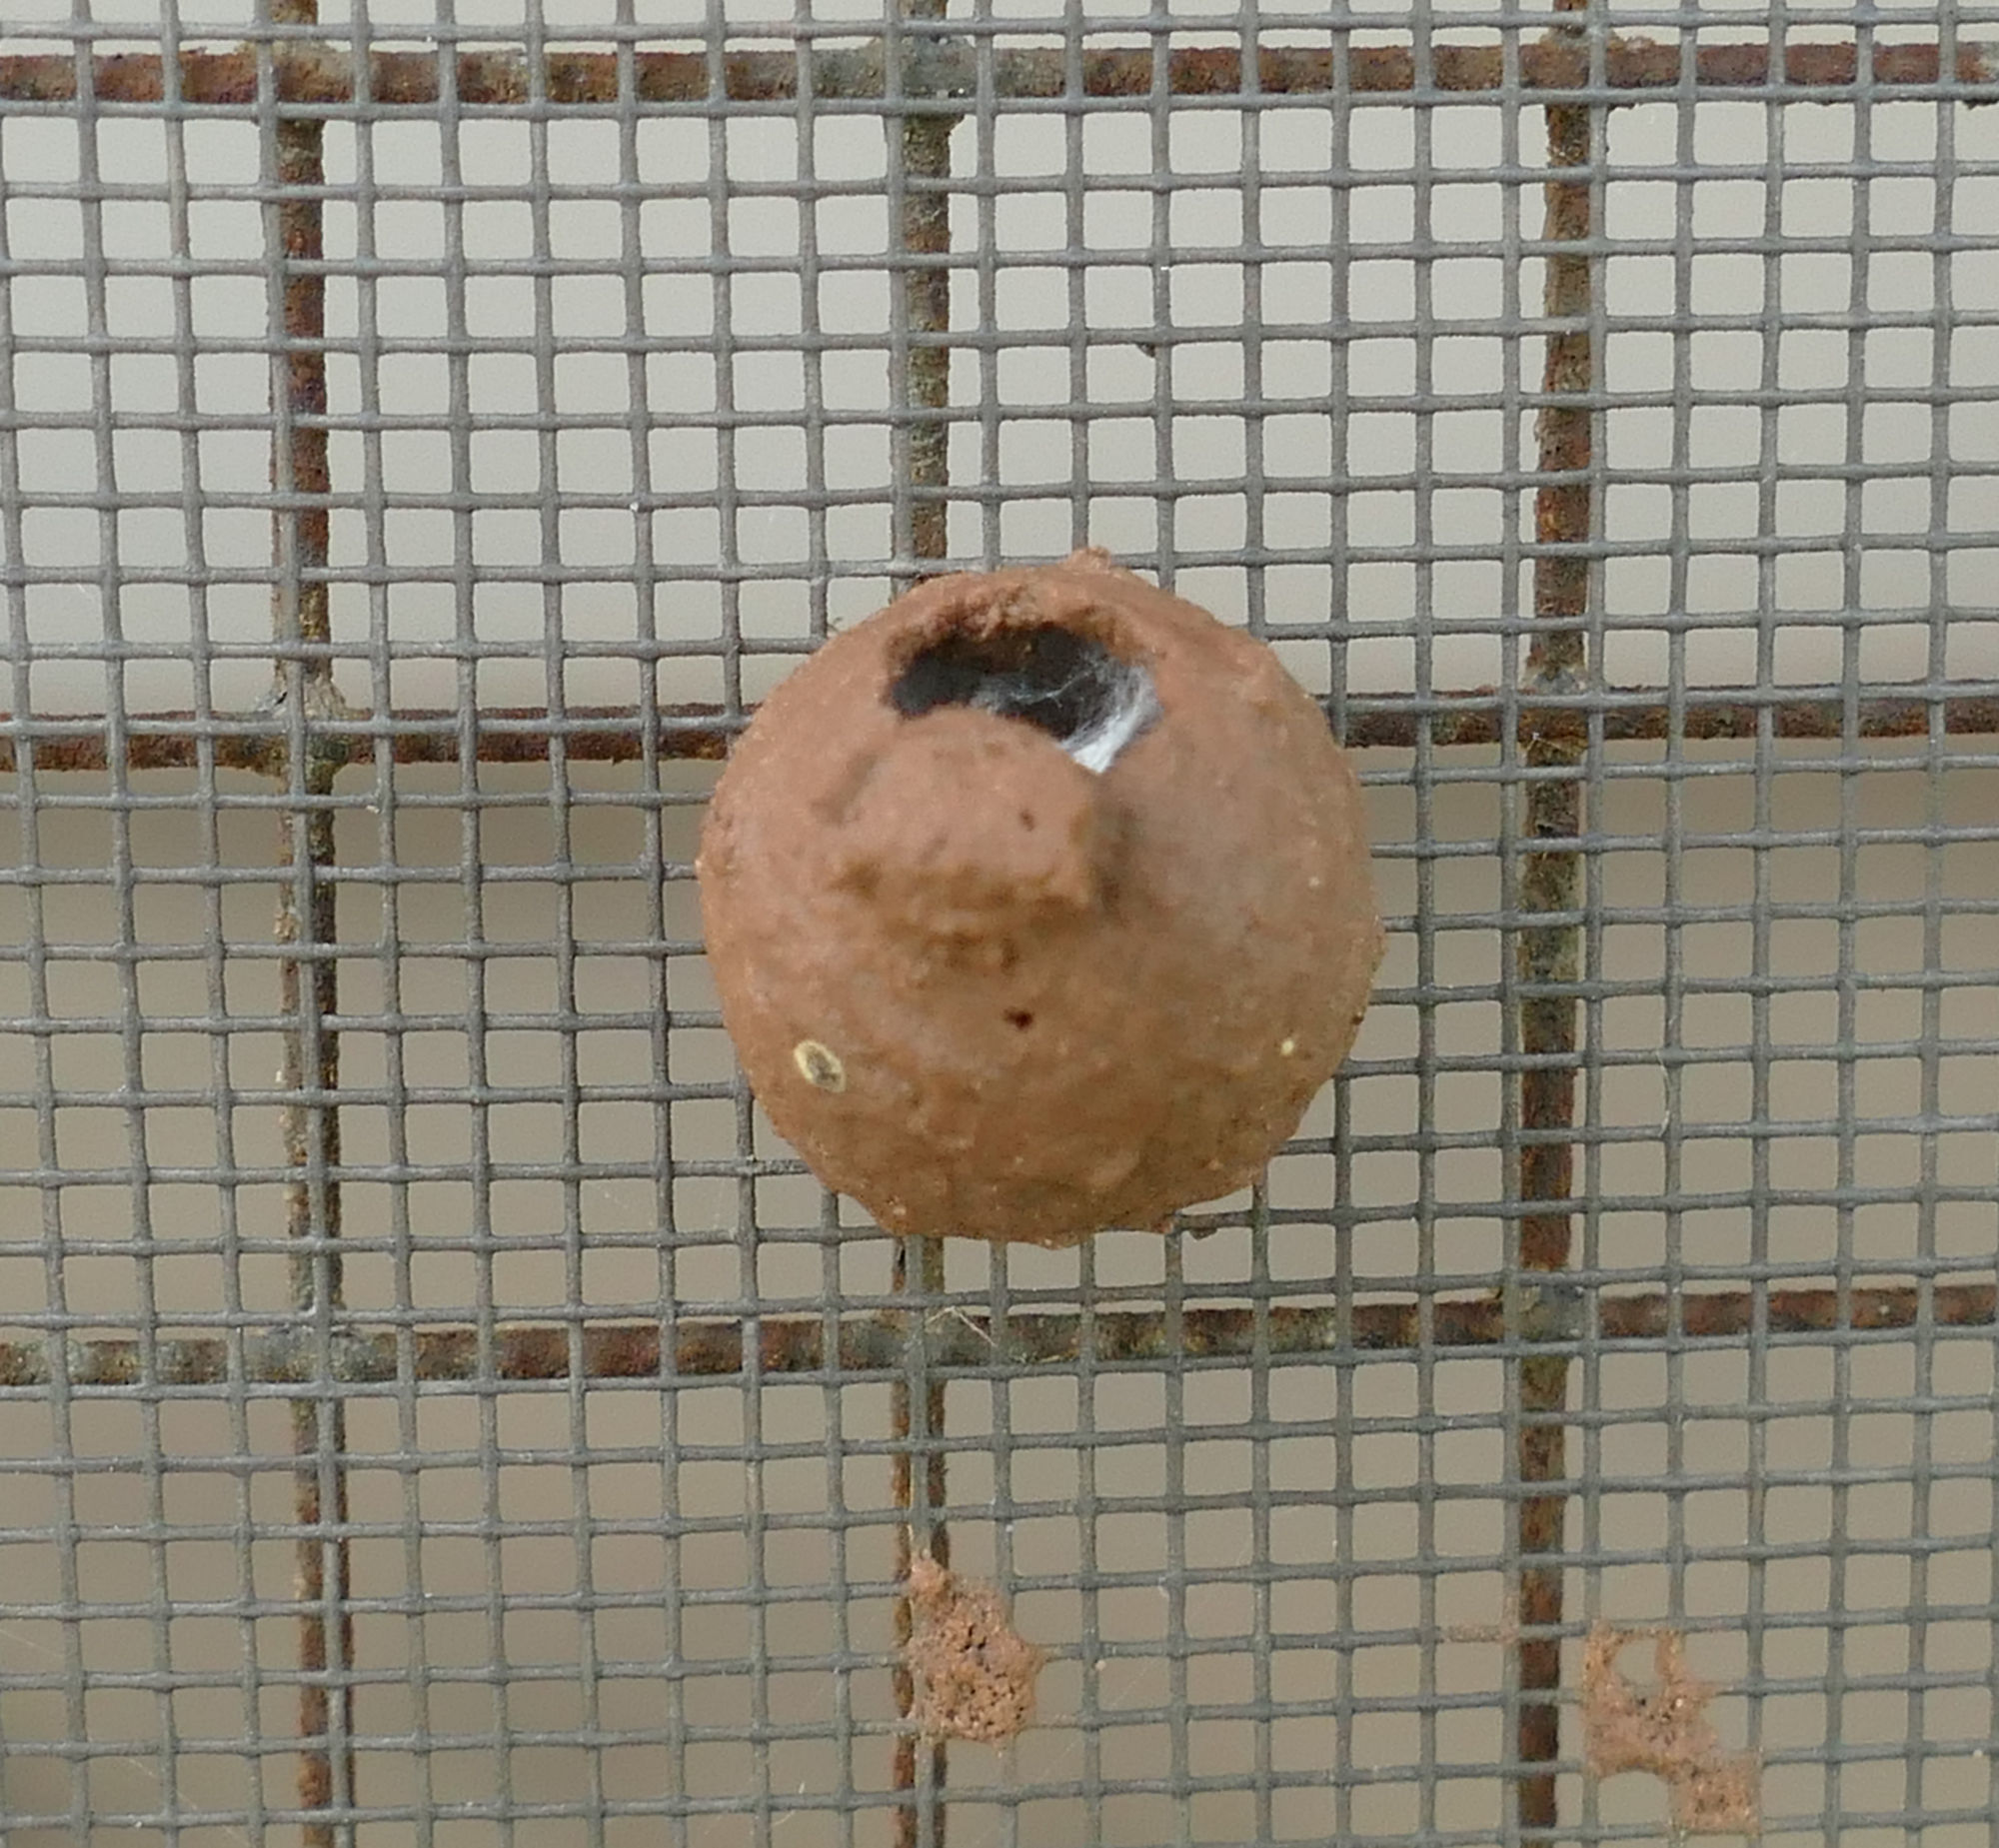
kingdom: Animalia
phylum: Arthropoda
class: Insecta
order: Hymenoptera
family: Vespidae
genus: Eumenes
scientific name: Eumenes
